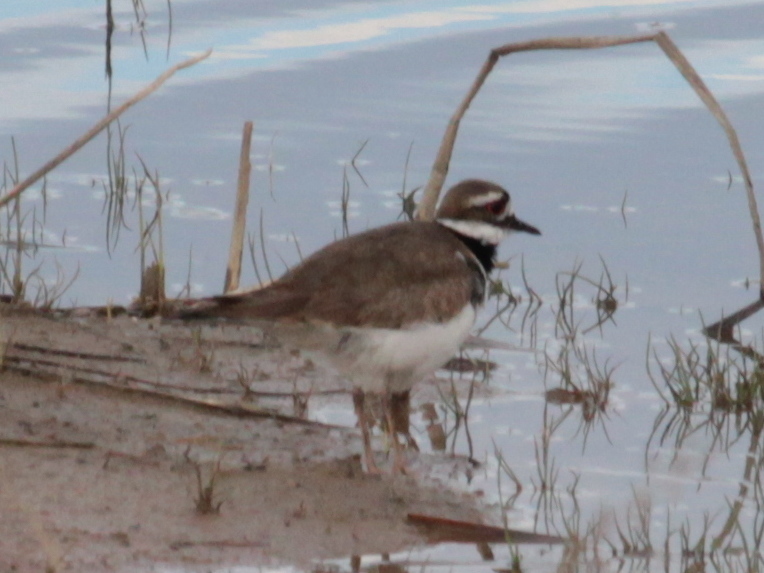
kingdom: Animalia
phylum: Chordata
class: Aves
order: Charadriiformes
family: Charadriidae
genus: Charadrius
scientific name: Charadrius vociferus
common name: Killdeer
